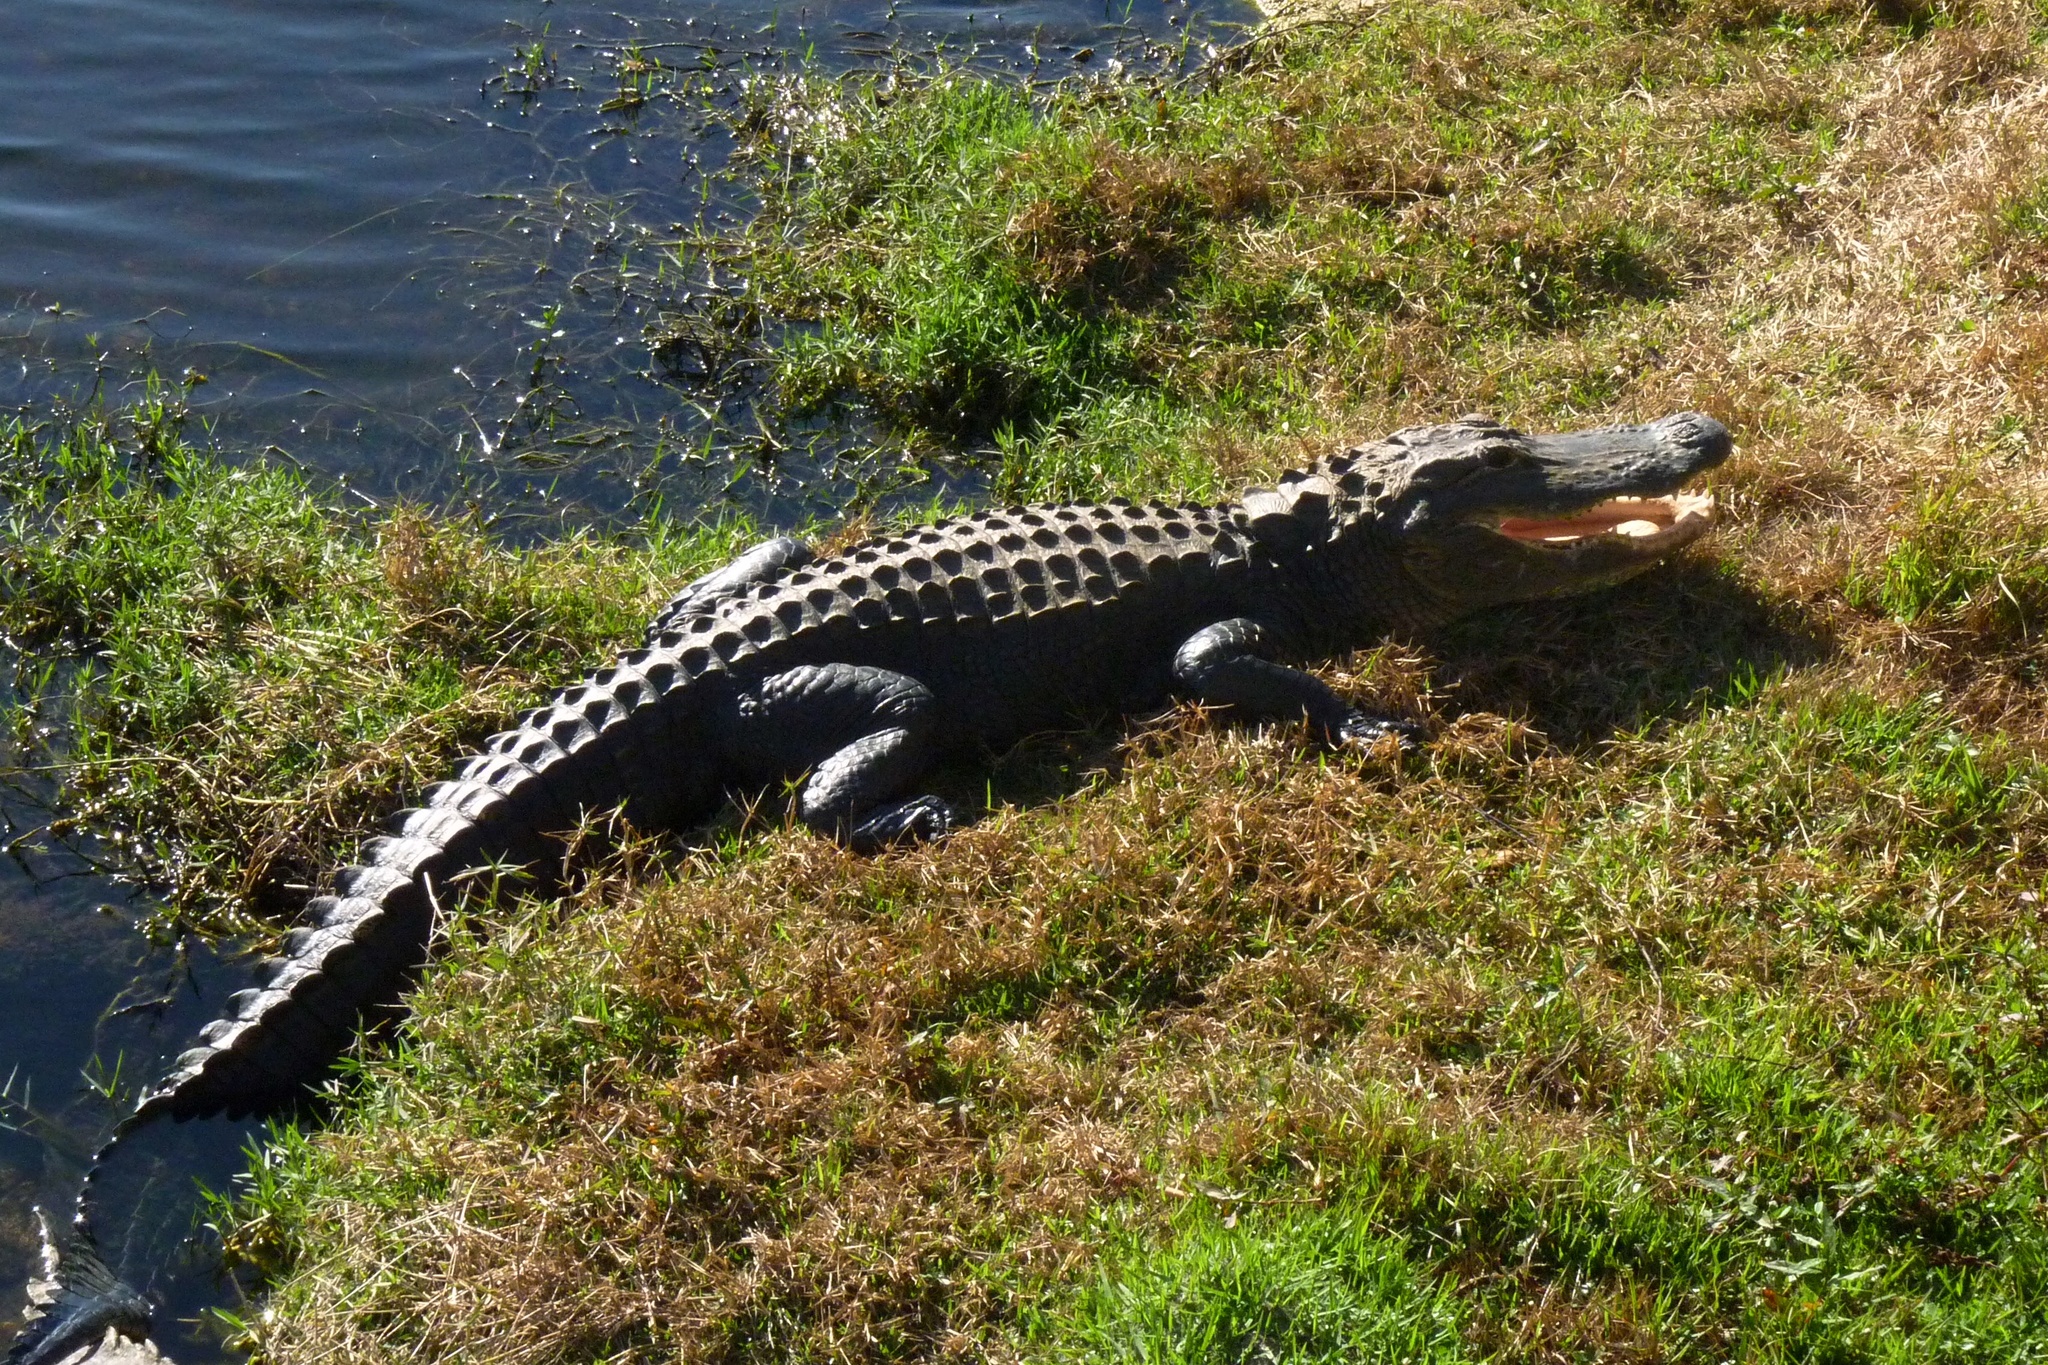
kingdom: Animalia
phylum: Chordata
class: Crocodylia
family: Alligatoridae
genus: Alligator
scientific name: Alligator mississippiensis
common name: American alligator
